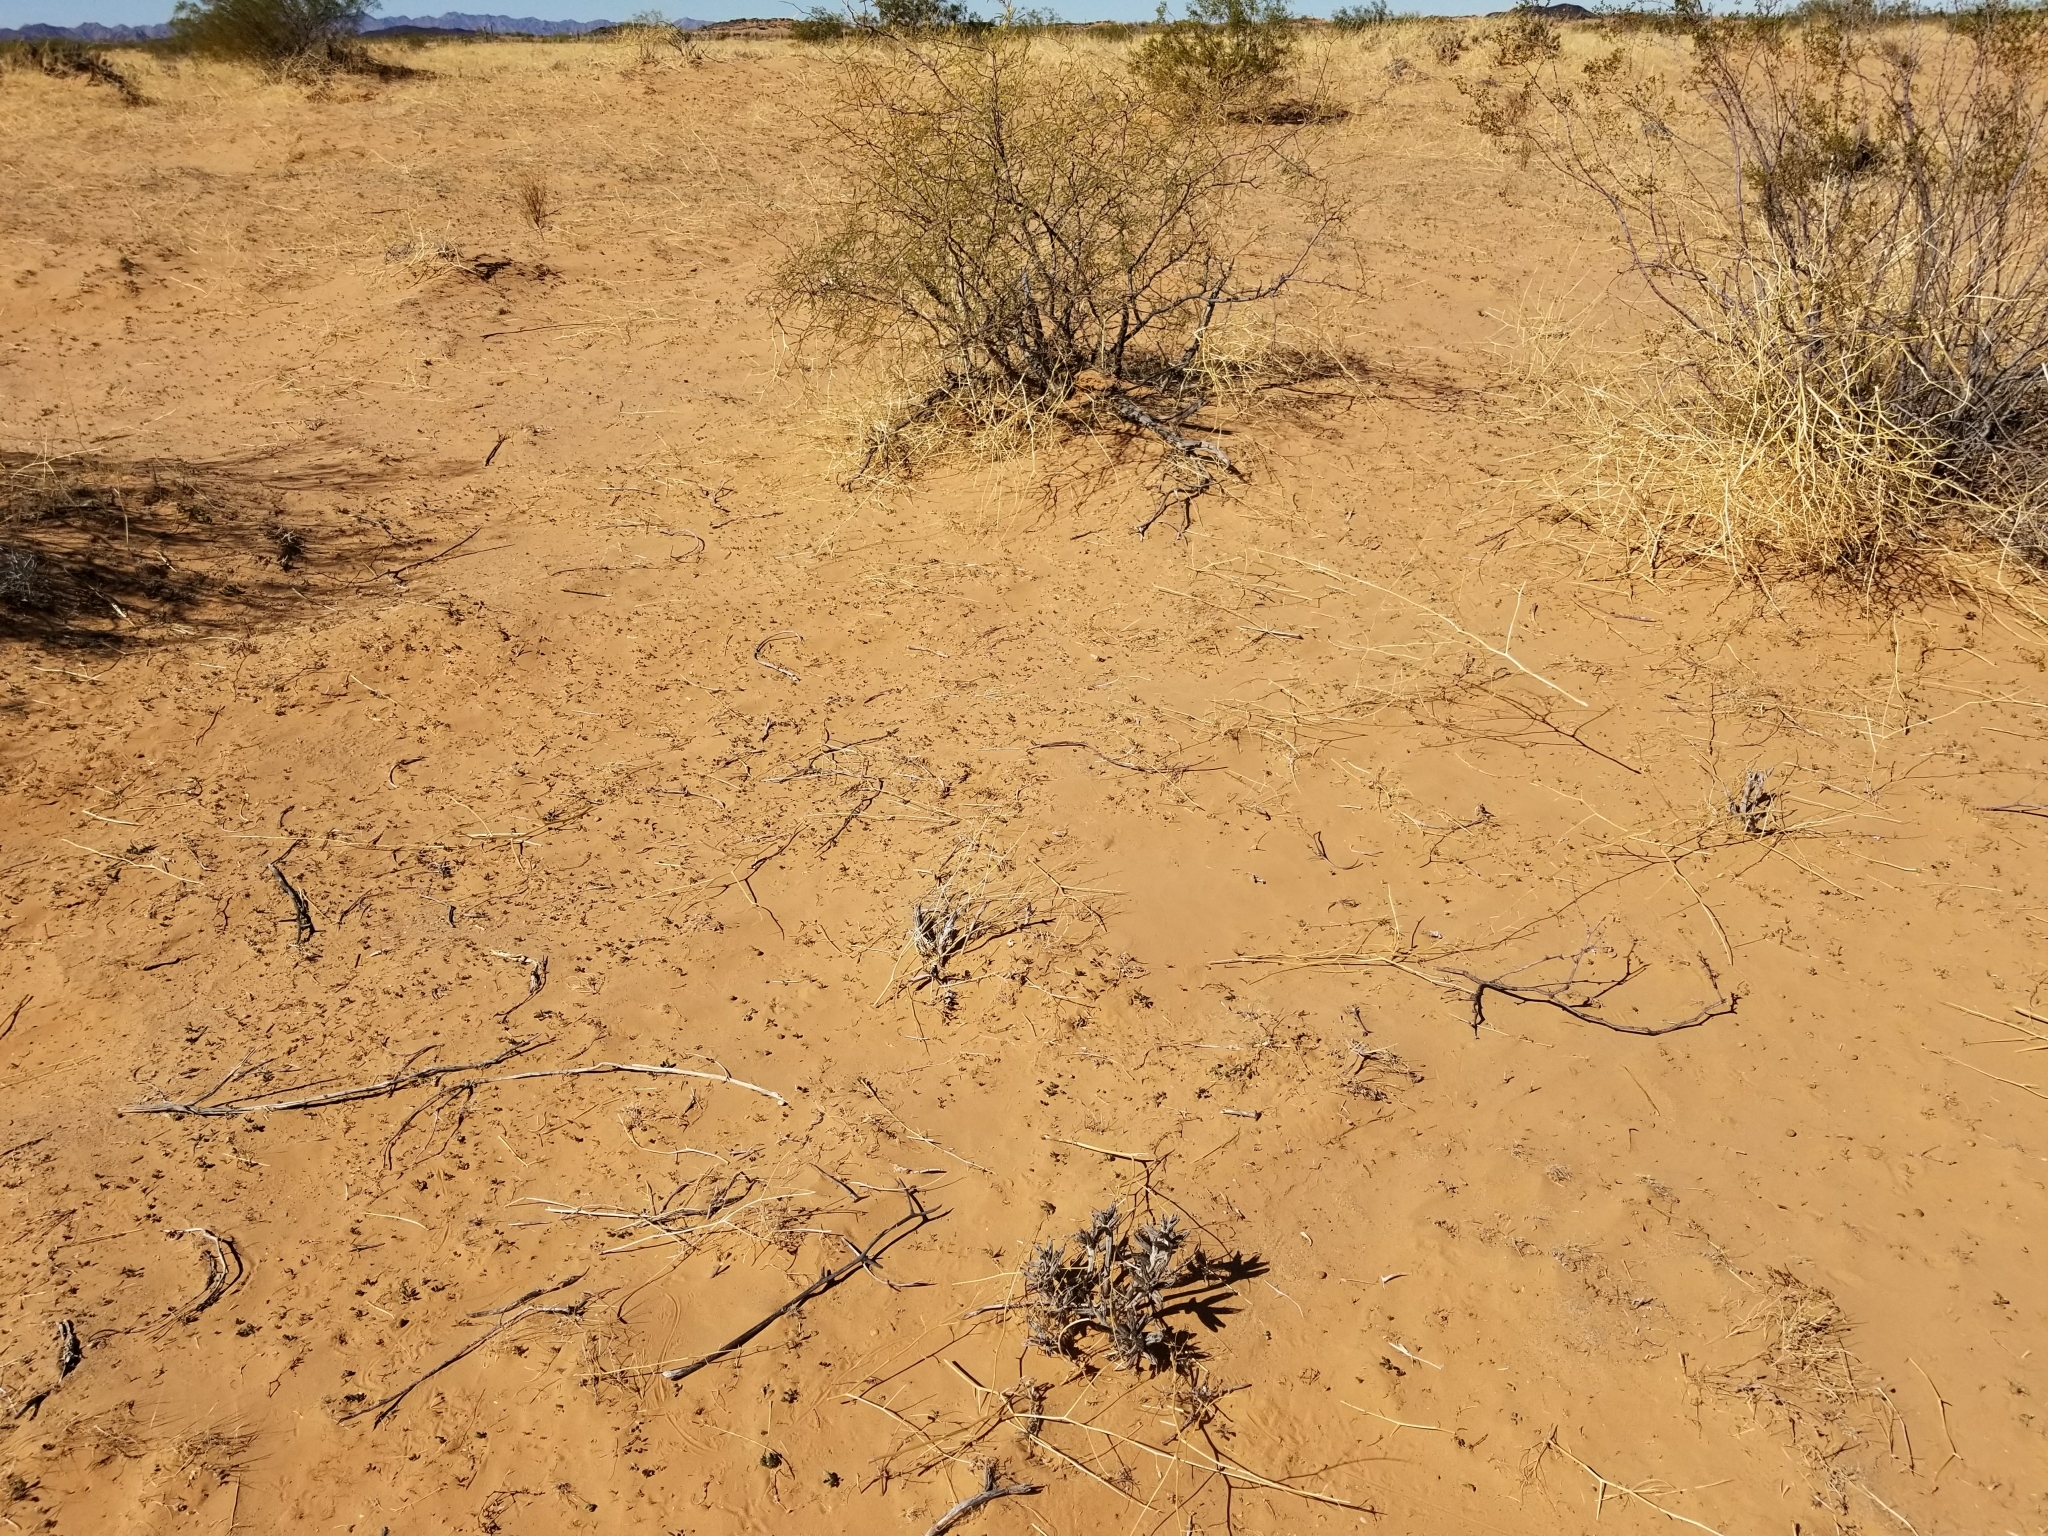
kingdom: Plantae
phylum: Tracheophyta
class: Magnoliopsida
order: Myrtales
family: Onagraceae
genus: Oenothera
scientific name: Oenothera deltoides
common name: Basket evening-primrose
